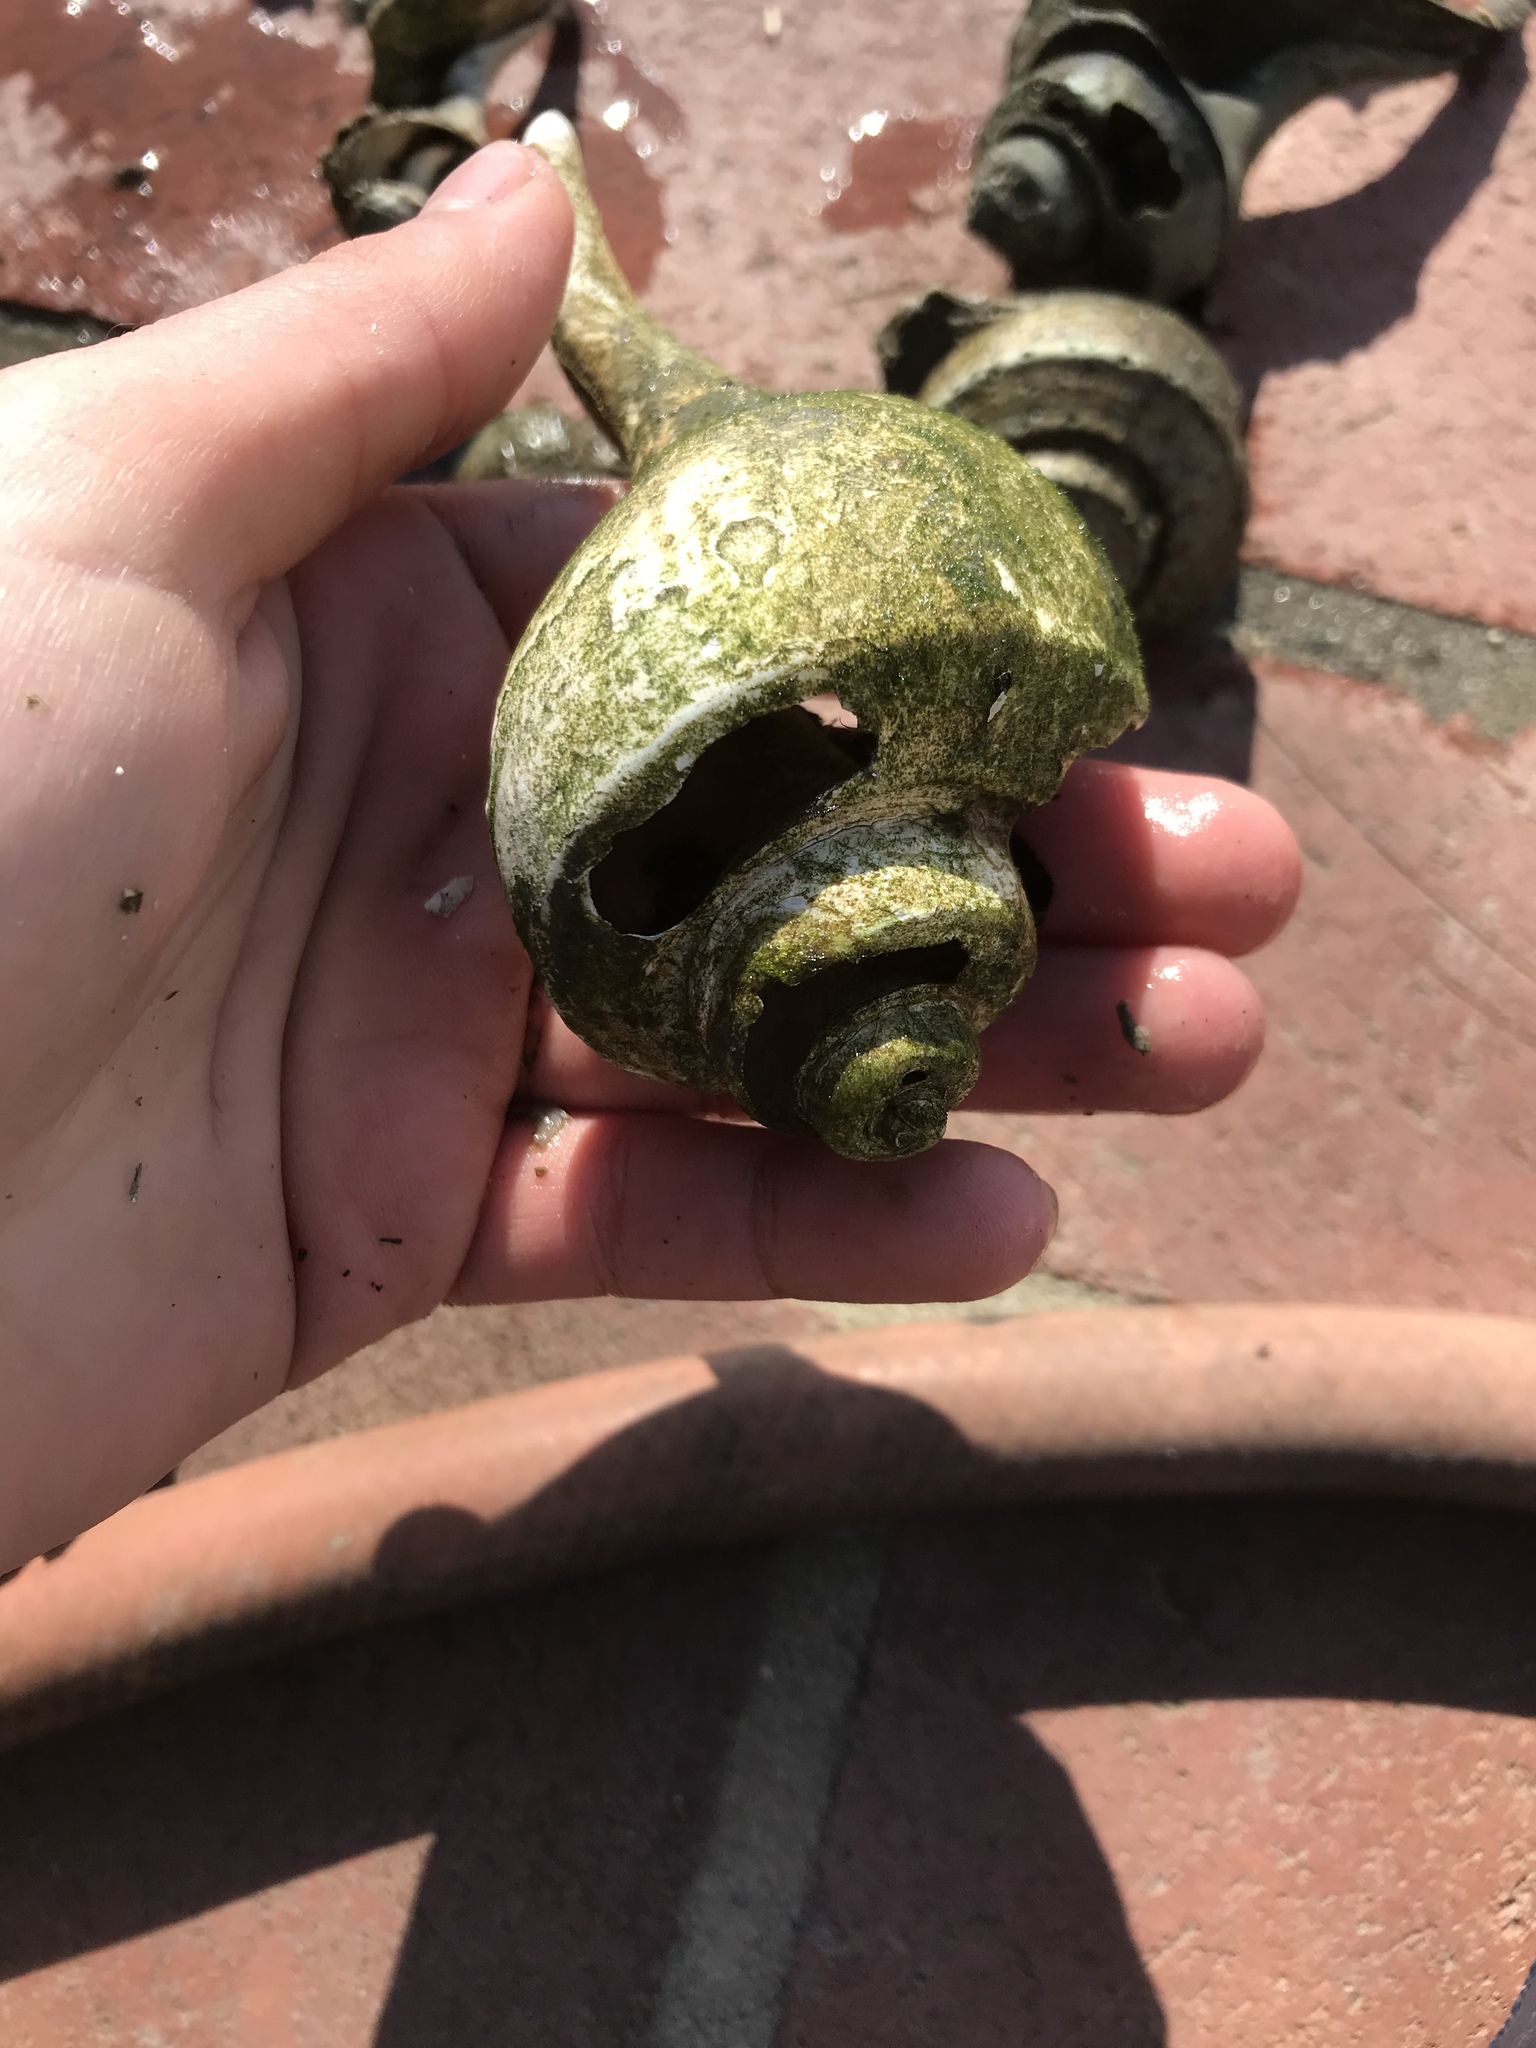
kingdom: Animalia
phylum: Mollusca
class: Gastropoda
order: Neogastropoda
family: Busyconidae
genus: Busycotypus
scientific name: Busycotypus canaliculatus
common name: Channeled whelk
